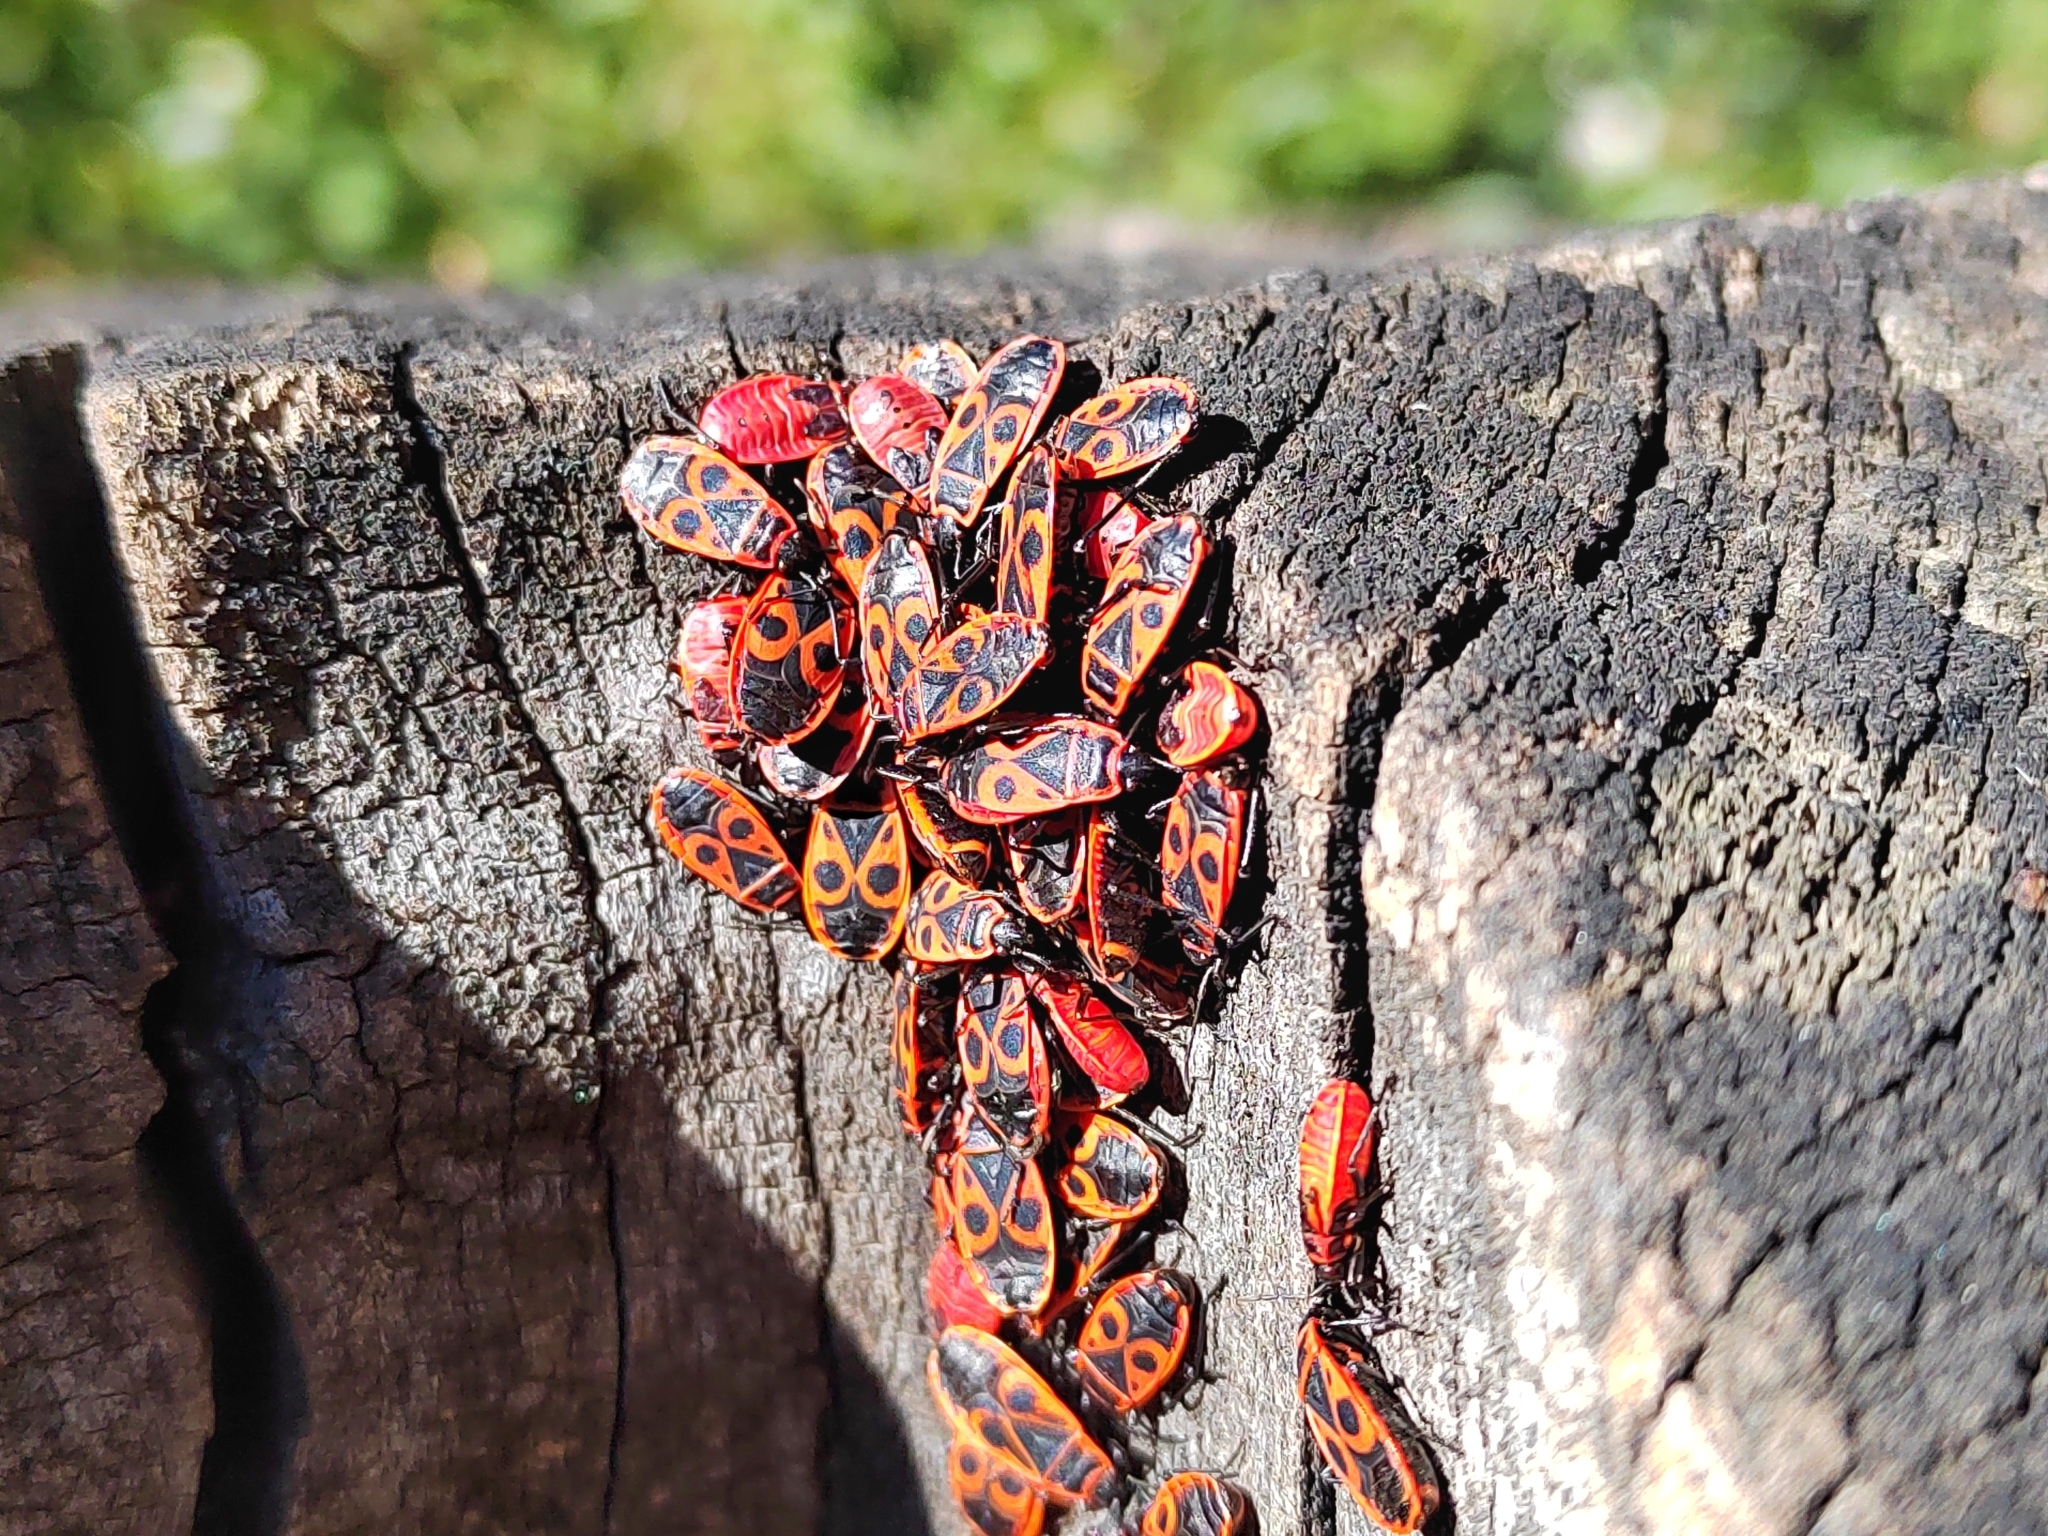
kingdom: Animalia
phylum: Arthropoda
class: Insecta
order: Hemiptera
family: Pyrrhocoridae
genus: Pyrrhocoris
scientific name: Pyrrhocoris apterus
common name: Firebug
